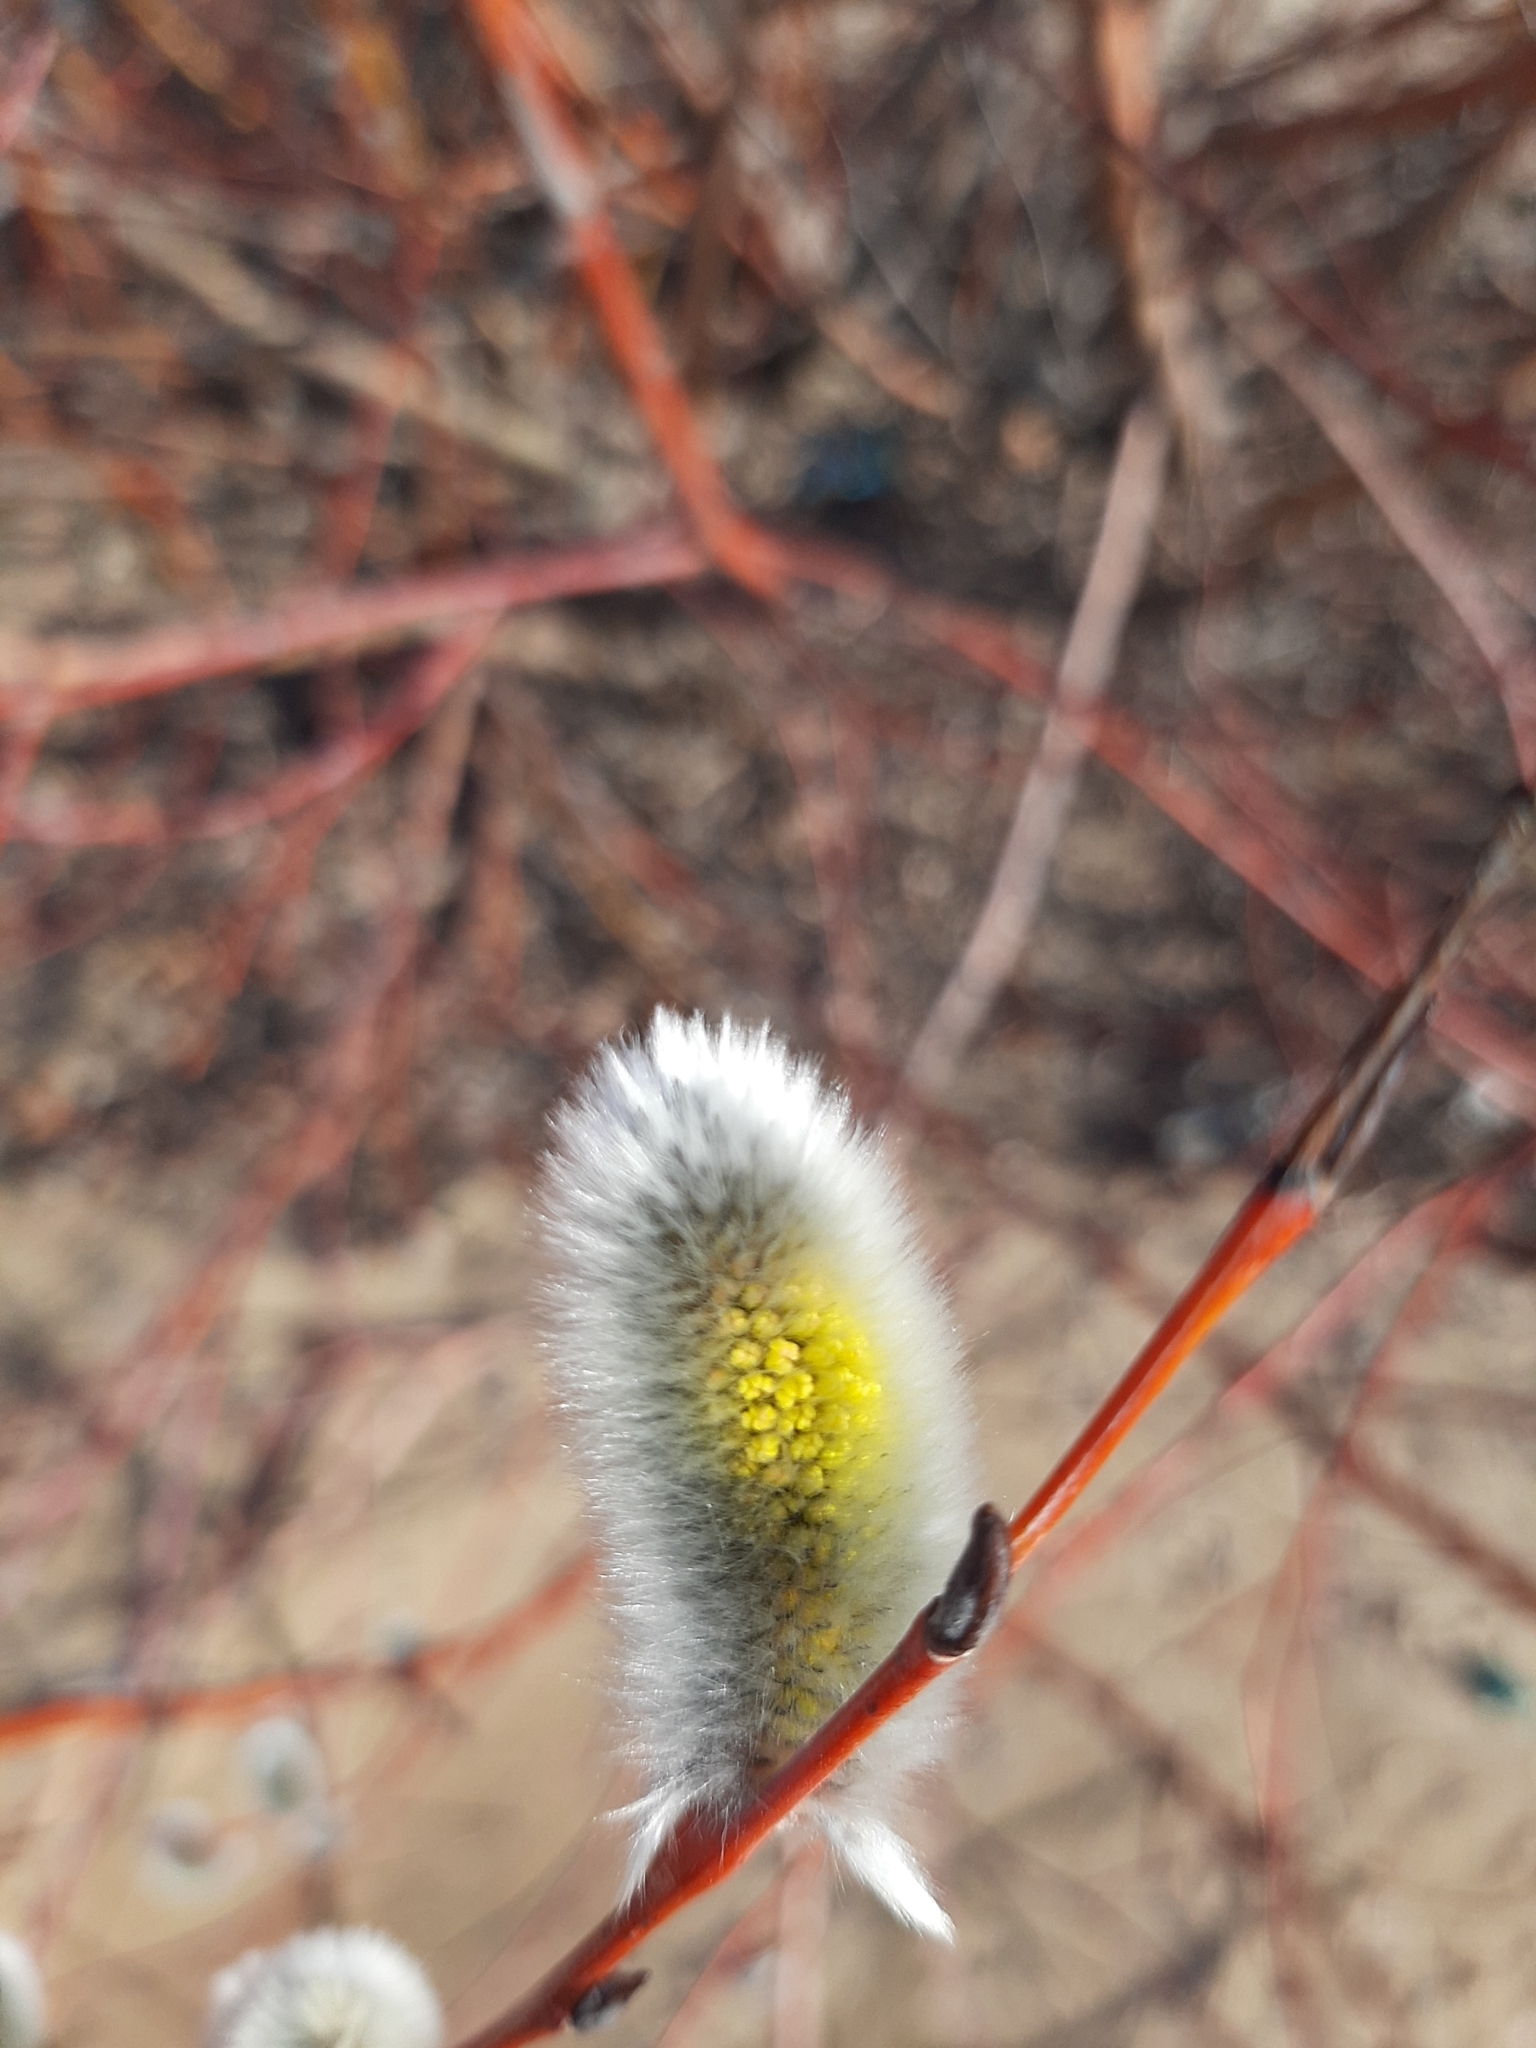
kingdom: Plantae
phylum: Tracheophyta
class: Magnoliopsida
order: Malpighiales
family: Salicaceae
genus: Salix
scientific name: Salix acutifolia
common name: Siberian violet-willow
